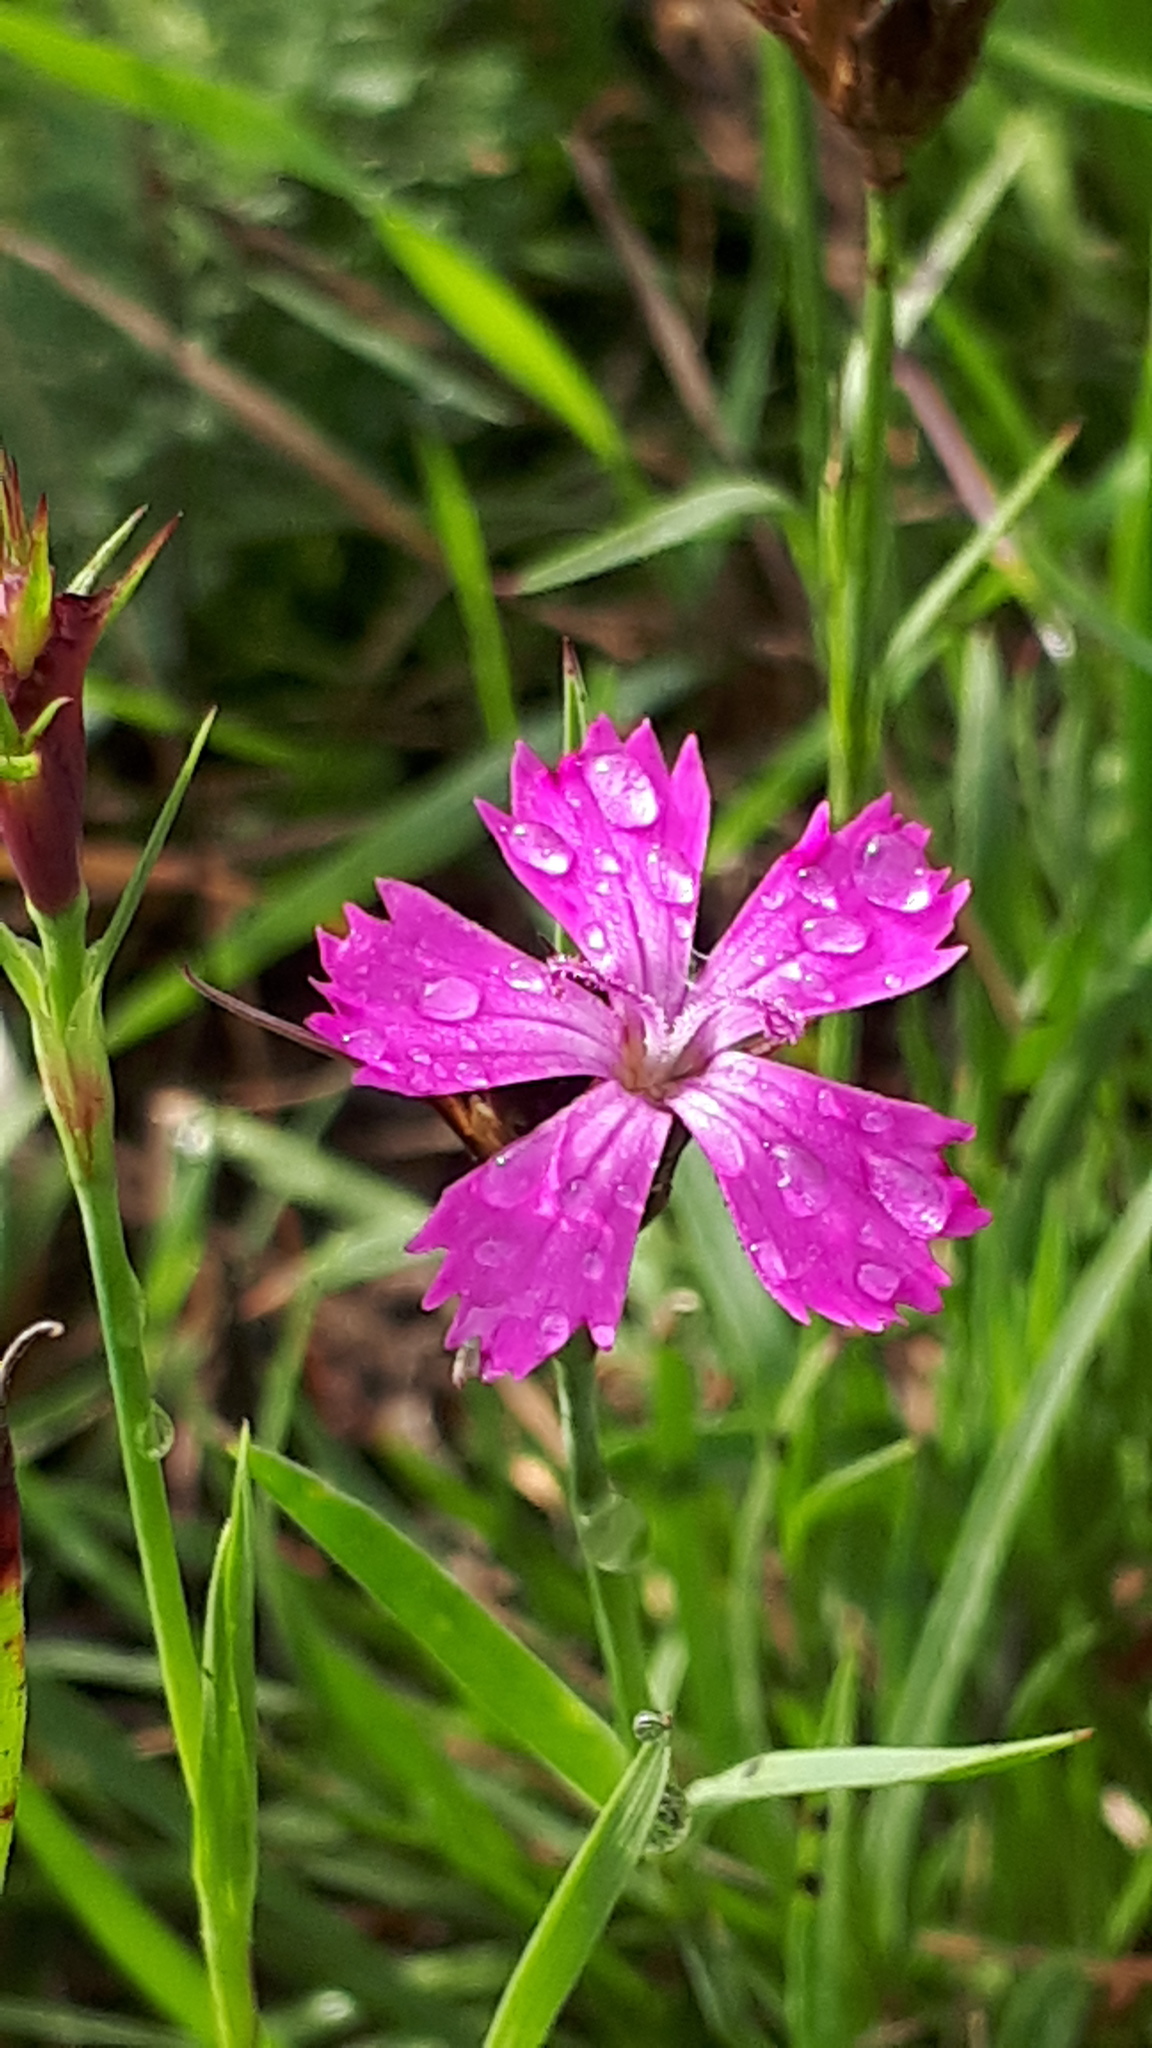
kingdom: Plantae
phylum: Tracheophyta
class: Magnoliopsida
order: Caryophyllales
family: Caryophyllaceae
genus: Dianthus
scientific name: Dianthus carthusianorum
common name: Carthusian pink
